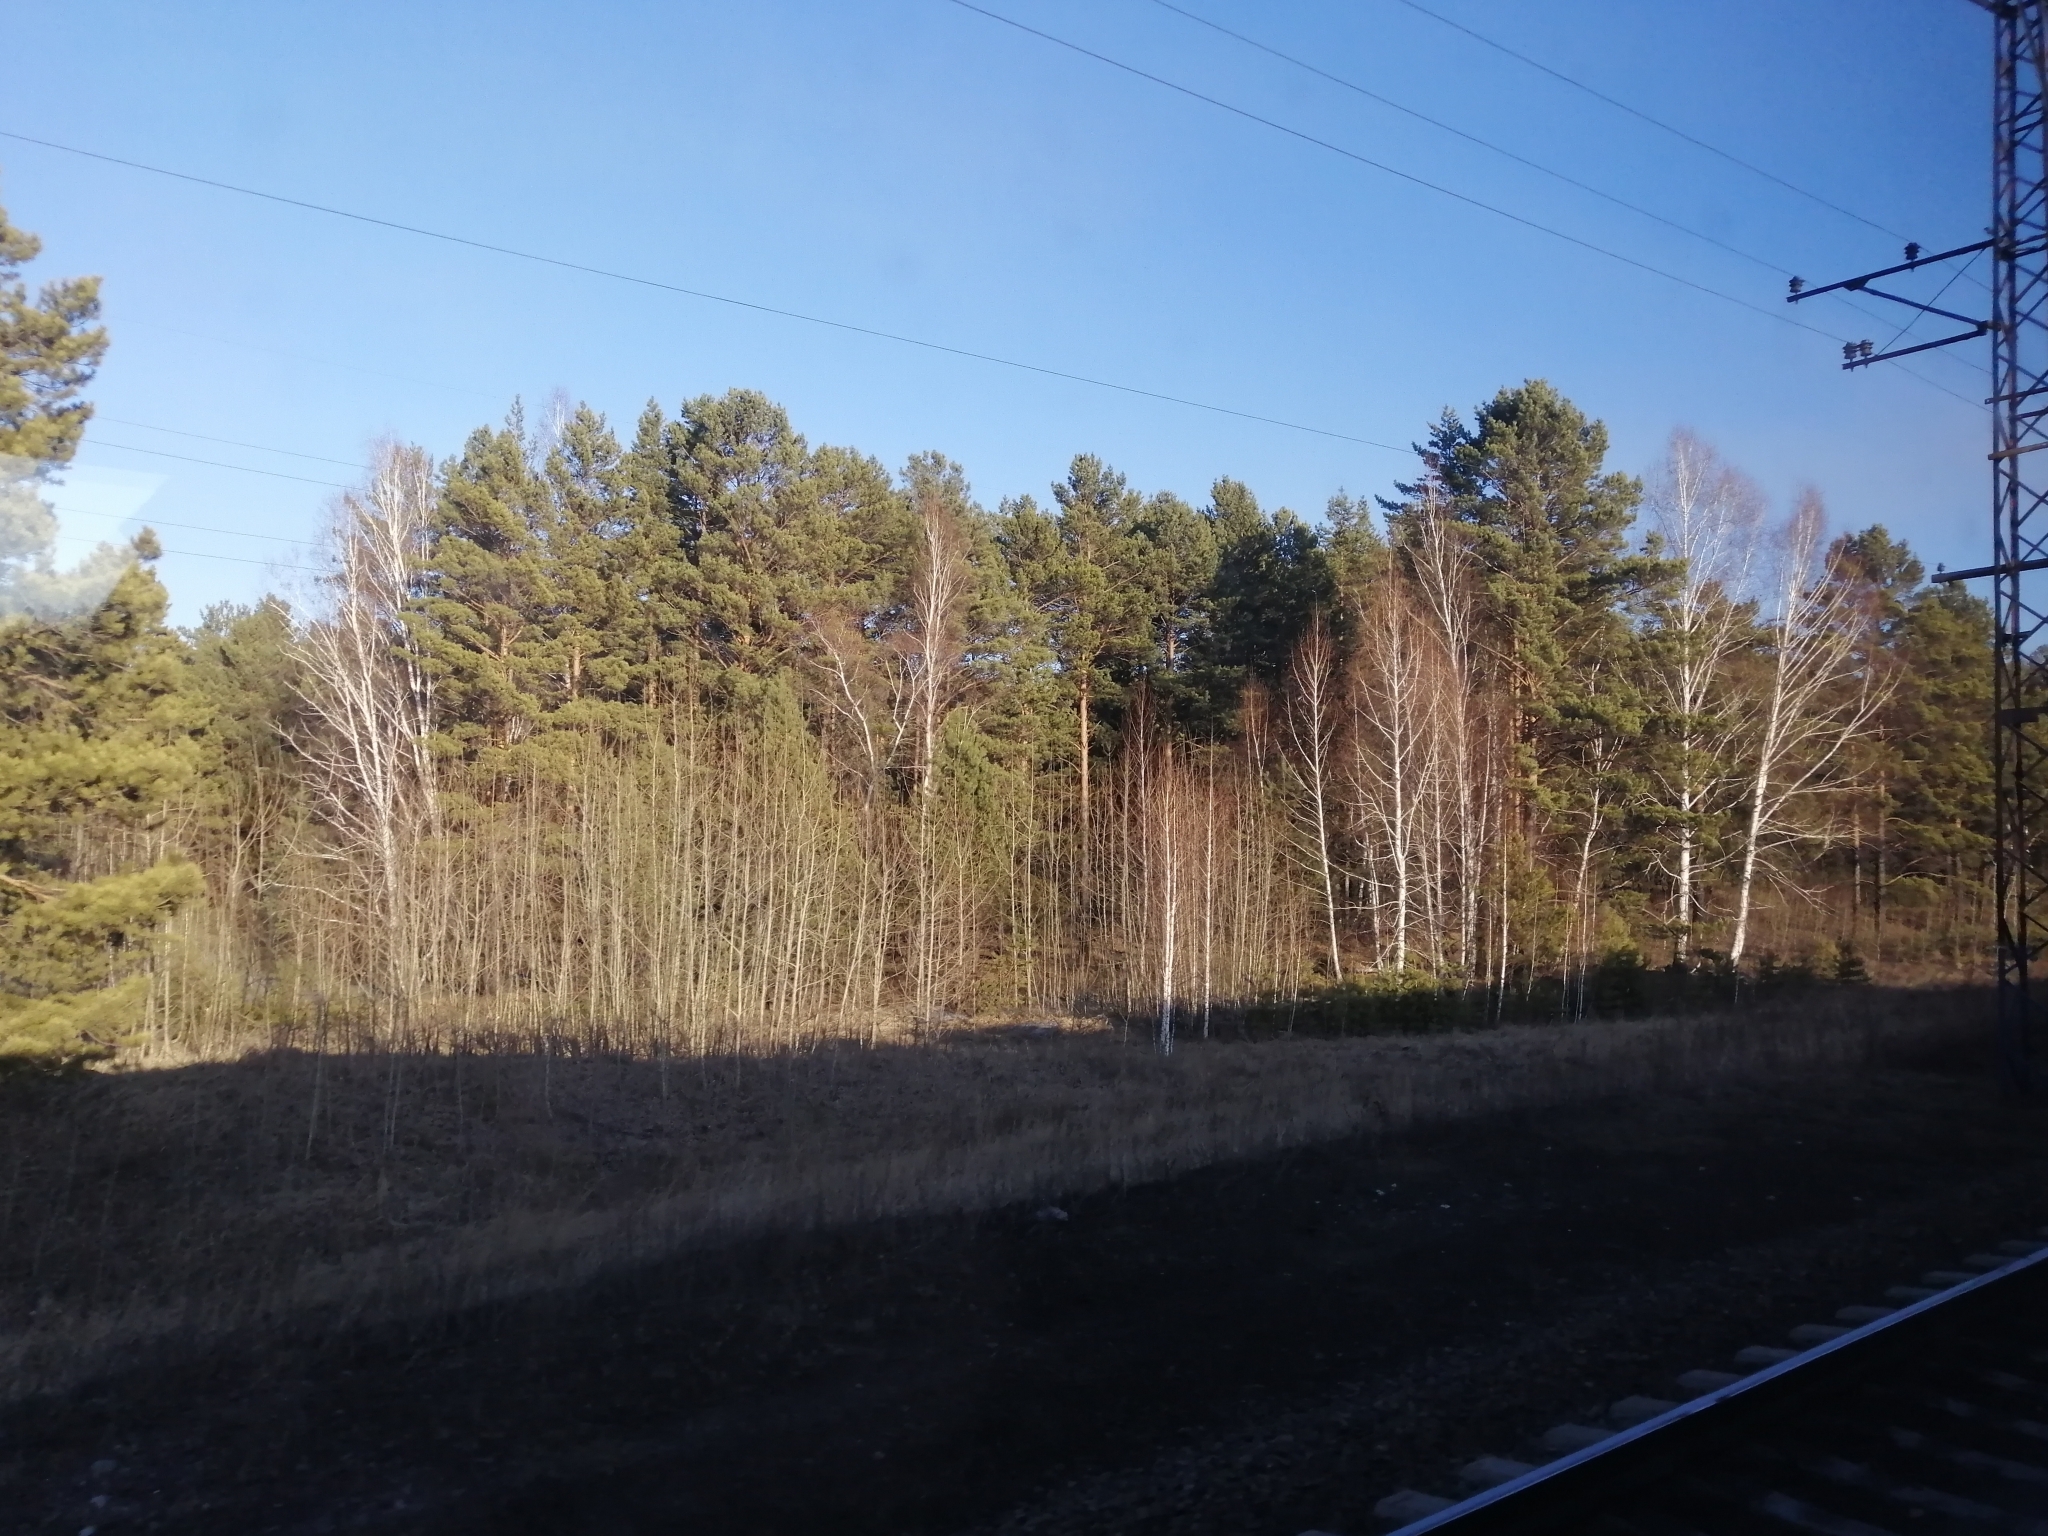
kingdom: Plantae
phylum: Tracheophyta
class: Pinopsida
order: Pinales
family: Pinaceae
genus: Pinus
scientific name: Pinus sylvestris
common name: Scots pine
